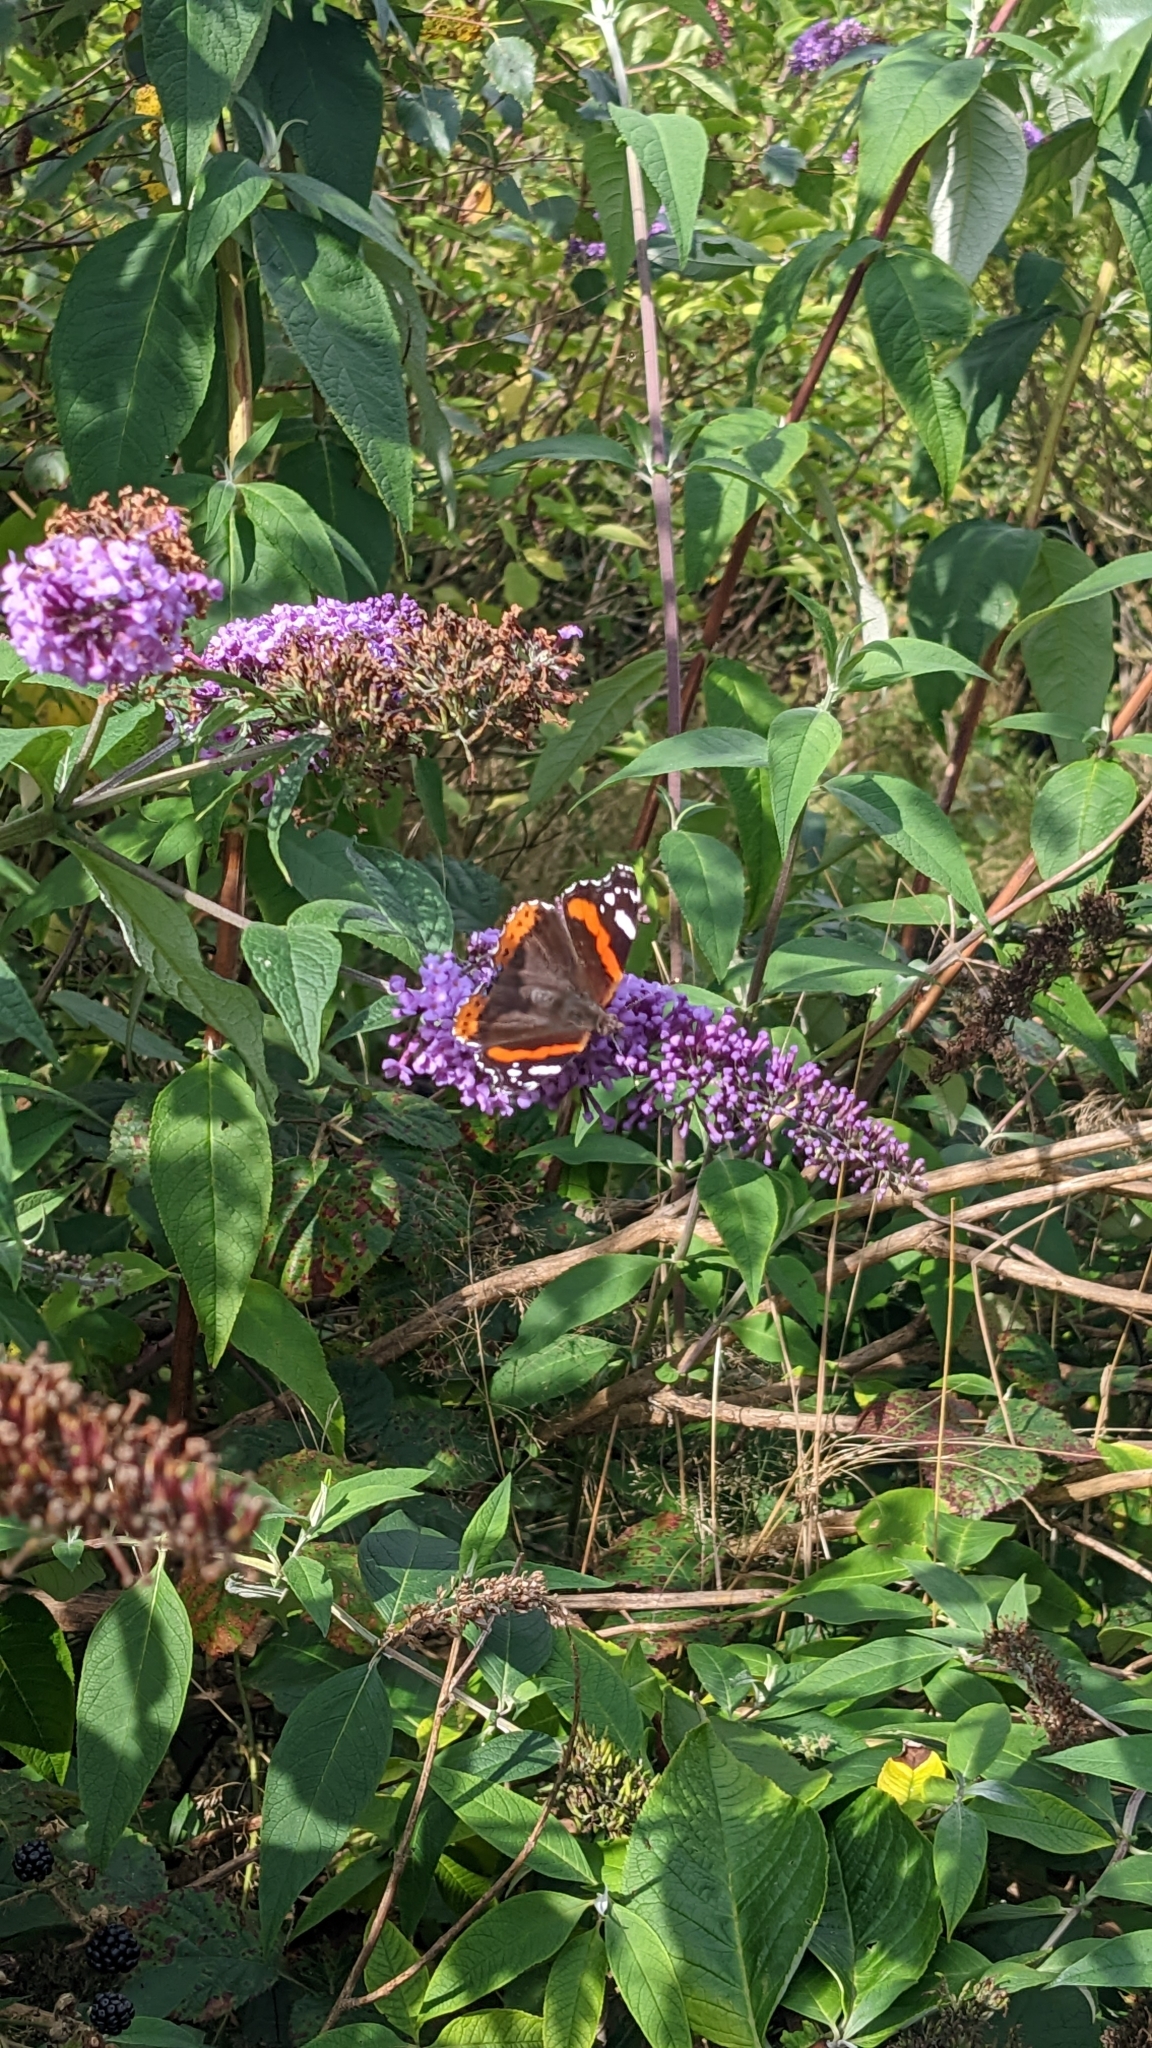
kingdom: Animalia
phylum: Arthropoda
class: Insecta
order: Lepidoptera
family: Nymphalidae
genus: Vanessa
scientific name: Vanessa atalanta
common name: Red admiral
